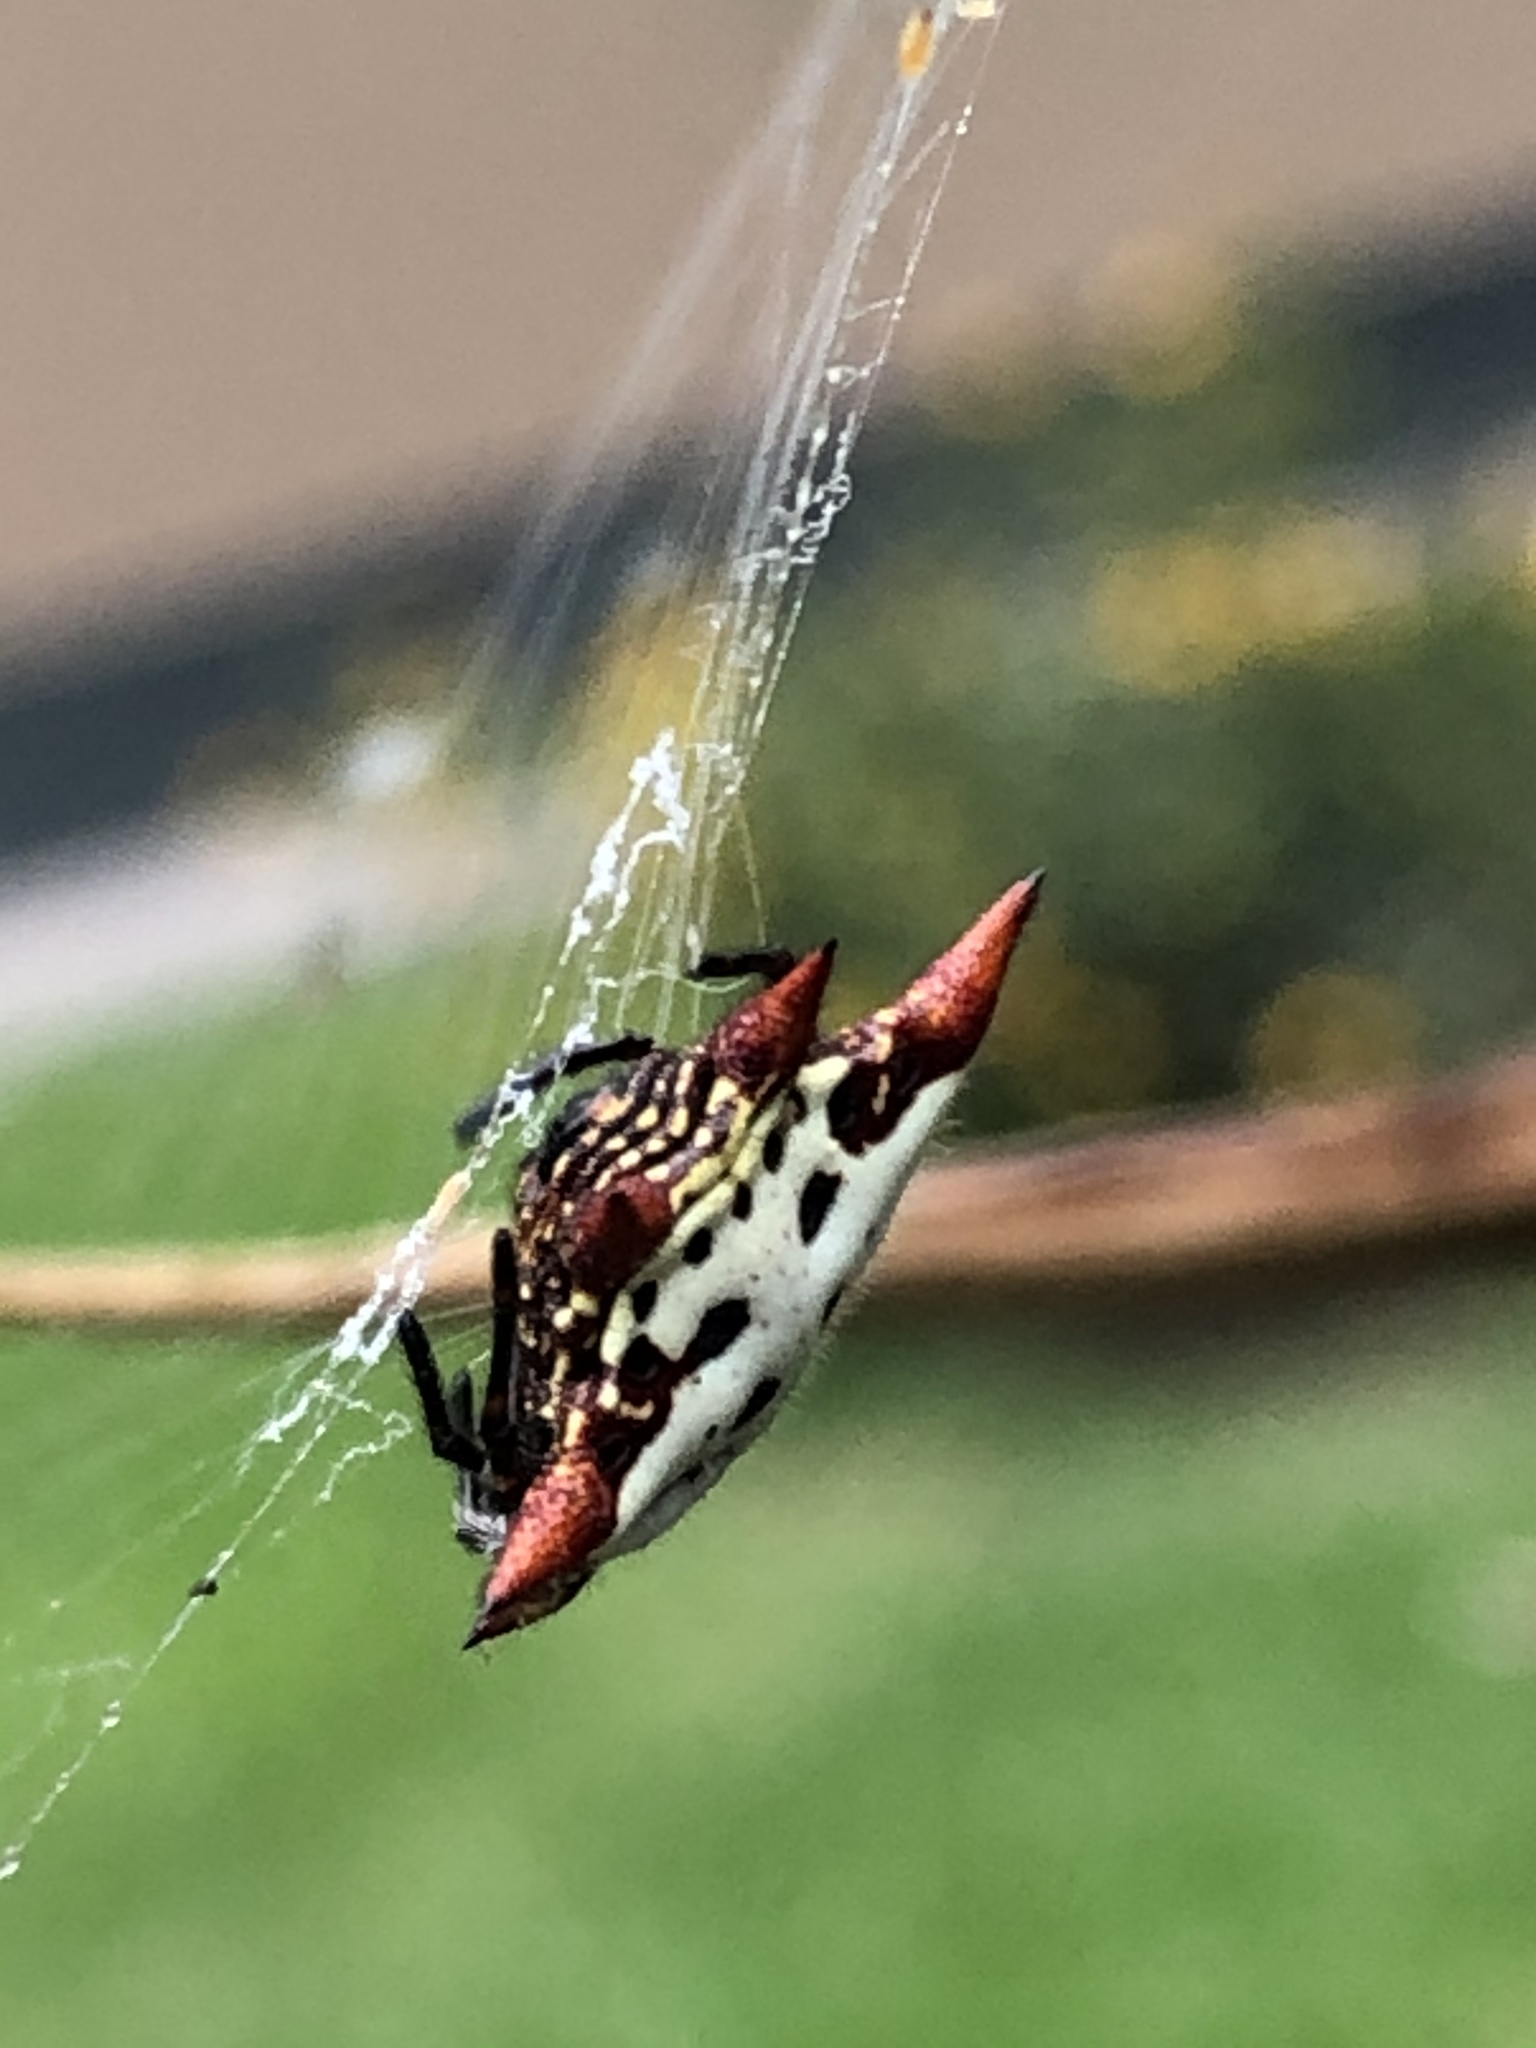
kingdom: Animalia
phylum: Arthropoda
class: Arachnida
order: Araneae
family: Araneidae
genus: Gasteracantha
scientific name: Gasteracantha cancriformis
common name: Orb weavers
